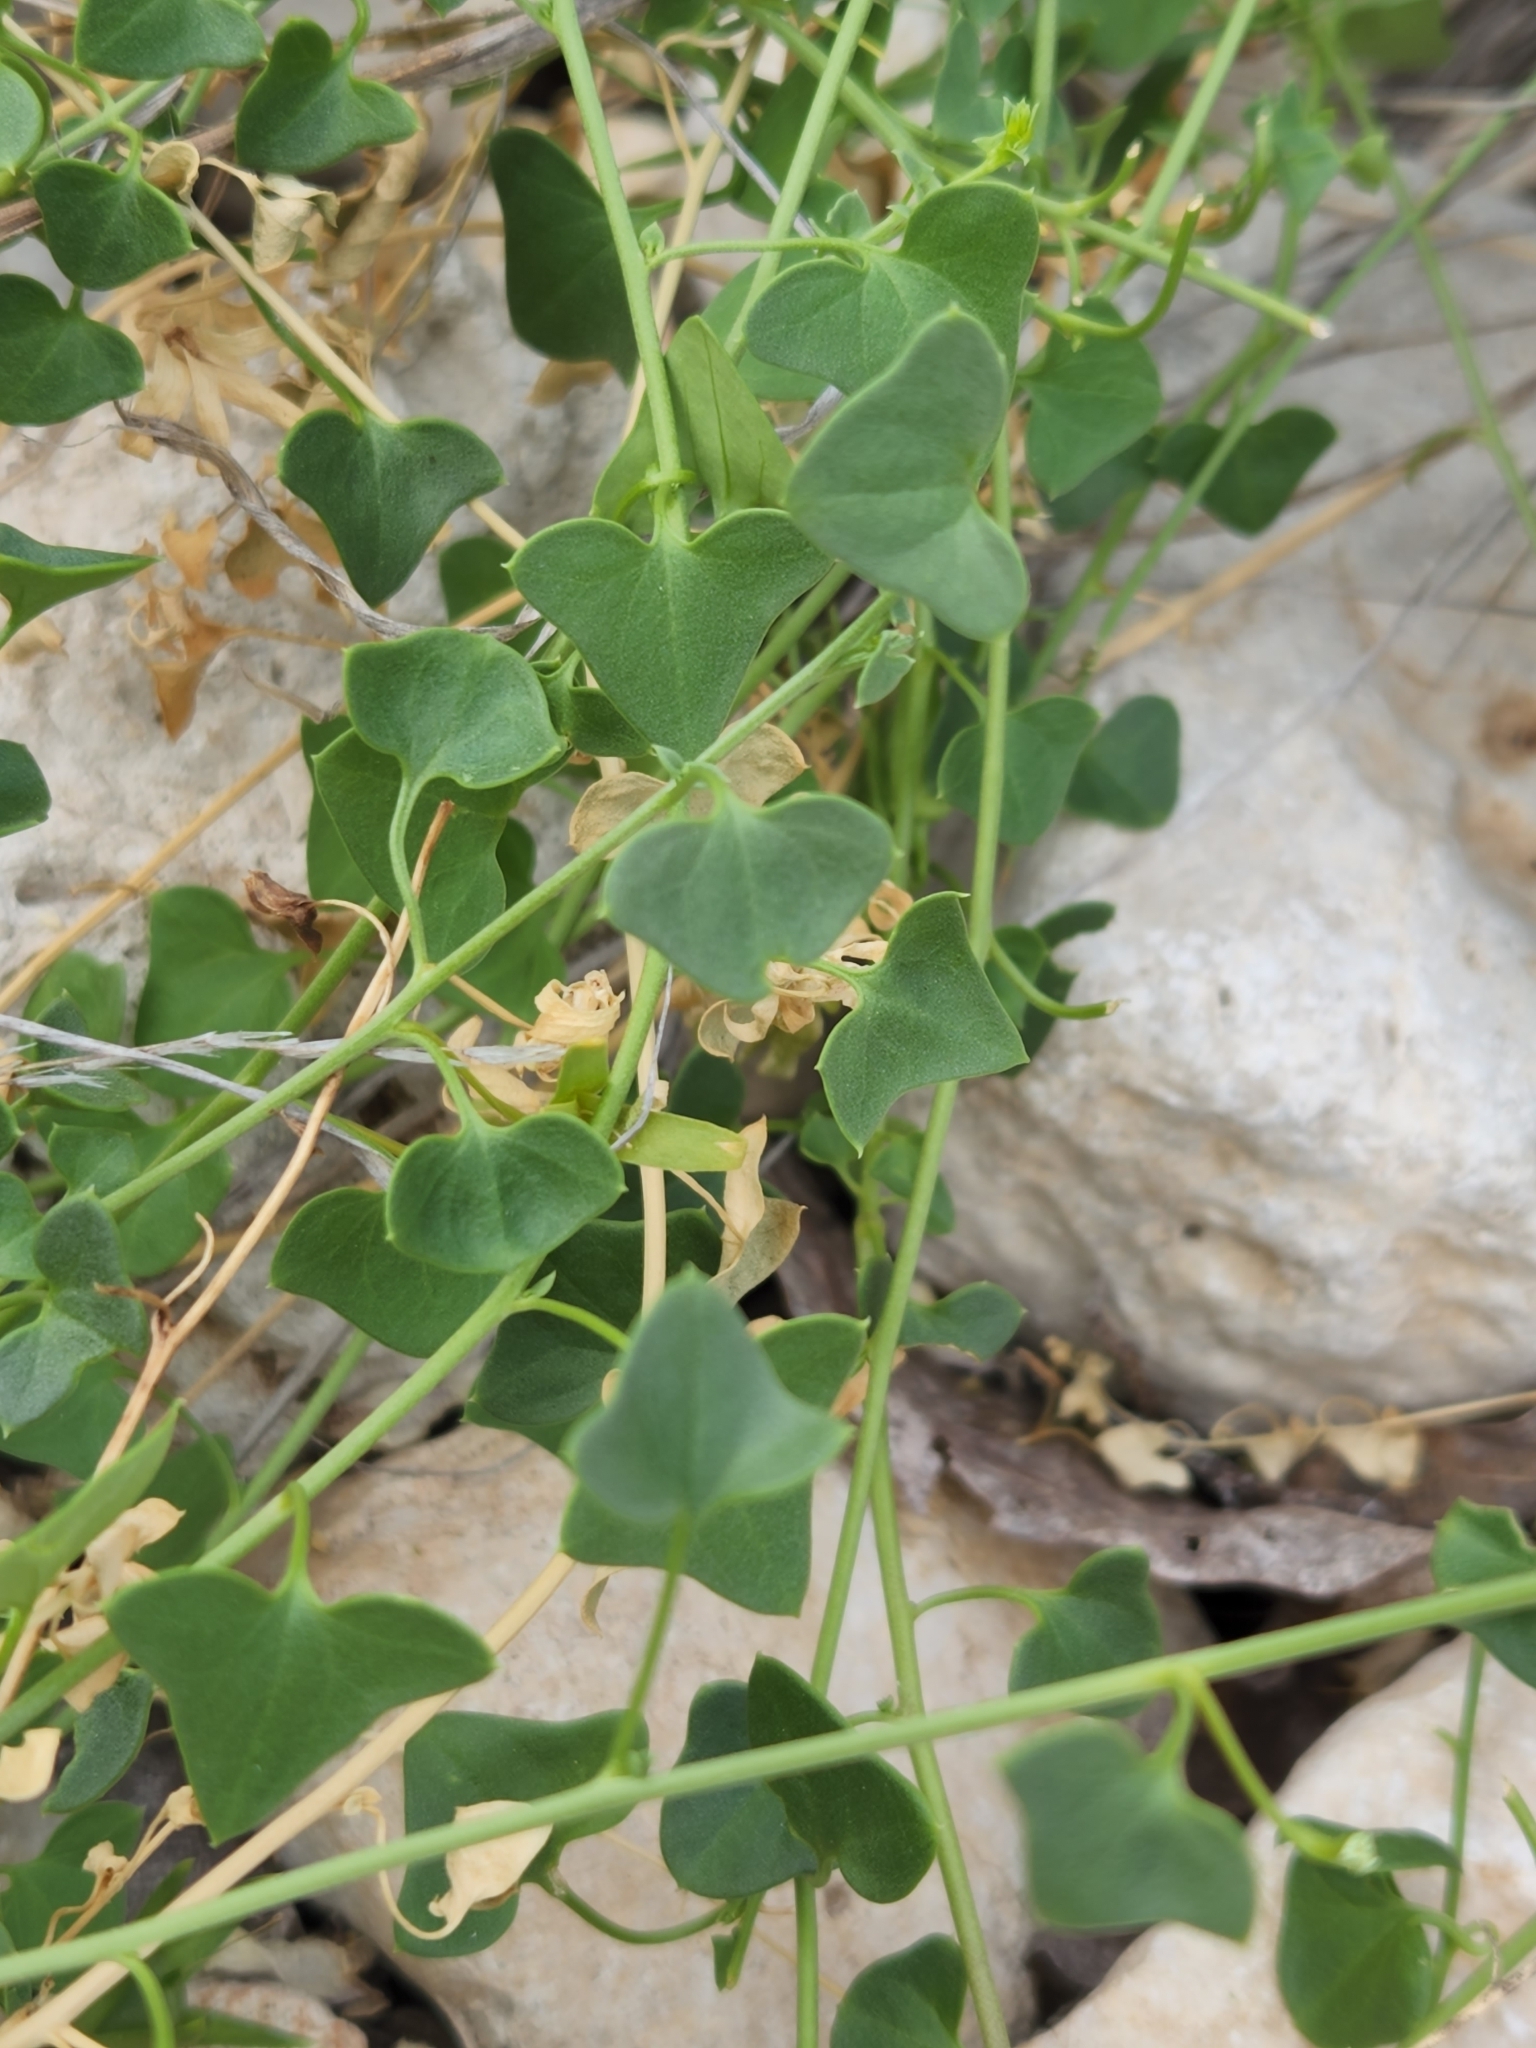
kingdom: Plantae
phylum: Tracheophyta
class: Magnoliopsida
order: Lamiales
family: Plantaginaceae
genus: Maurandella
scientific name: Maurandella antirrhiniflora
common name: Violet twining-snapdragon
